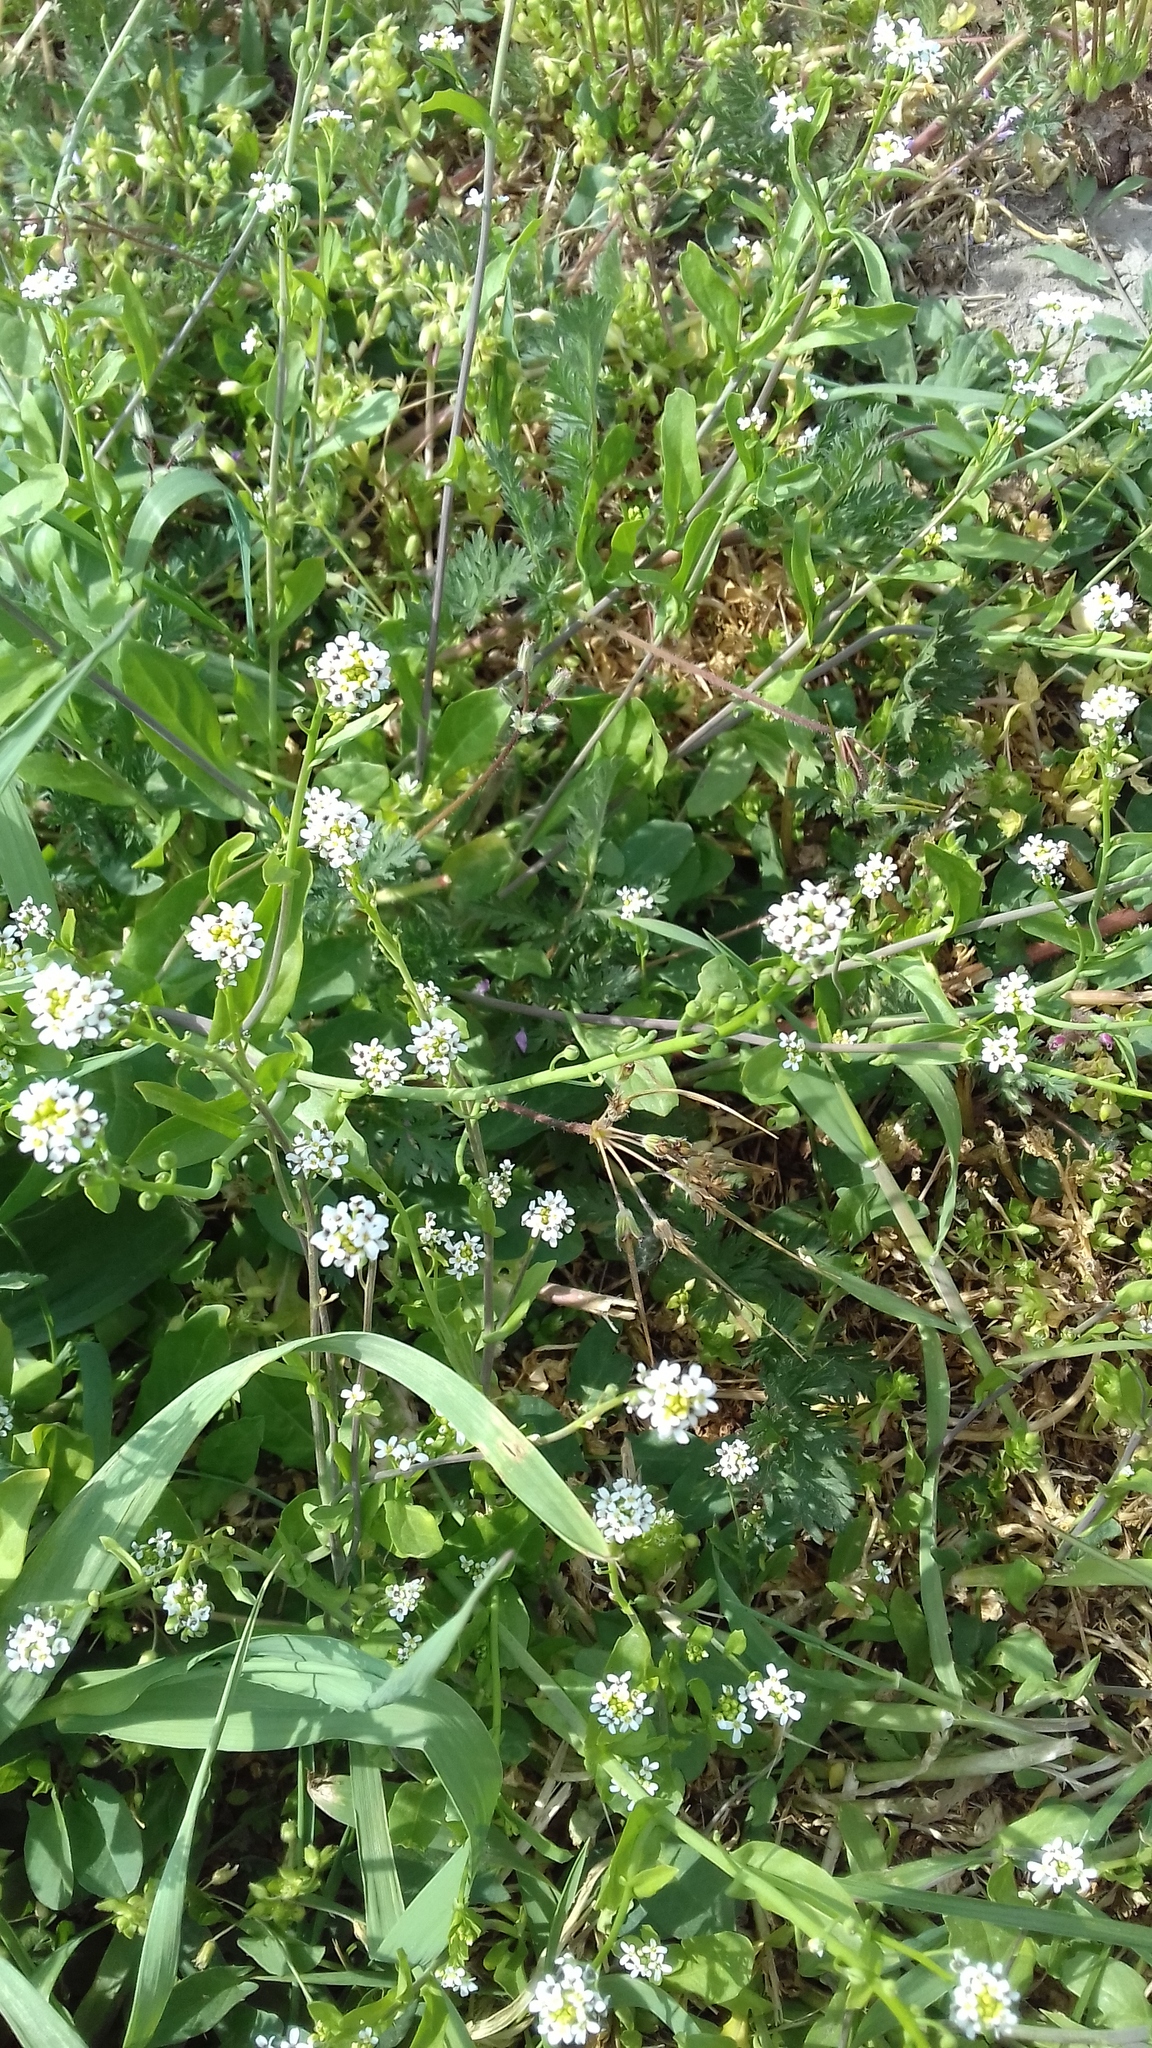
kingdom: Plantae
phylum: Tracheophyta
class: Magnoliopsida
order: Brassicales
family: Brassicaceae
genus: Calepina
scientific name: Calepina irregularis
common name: White ballmustard
